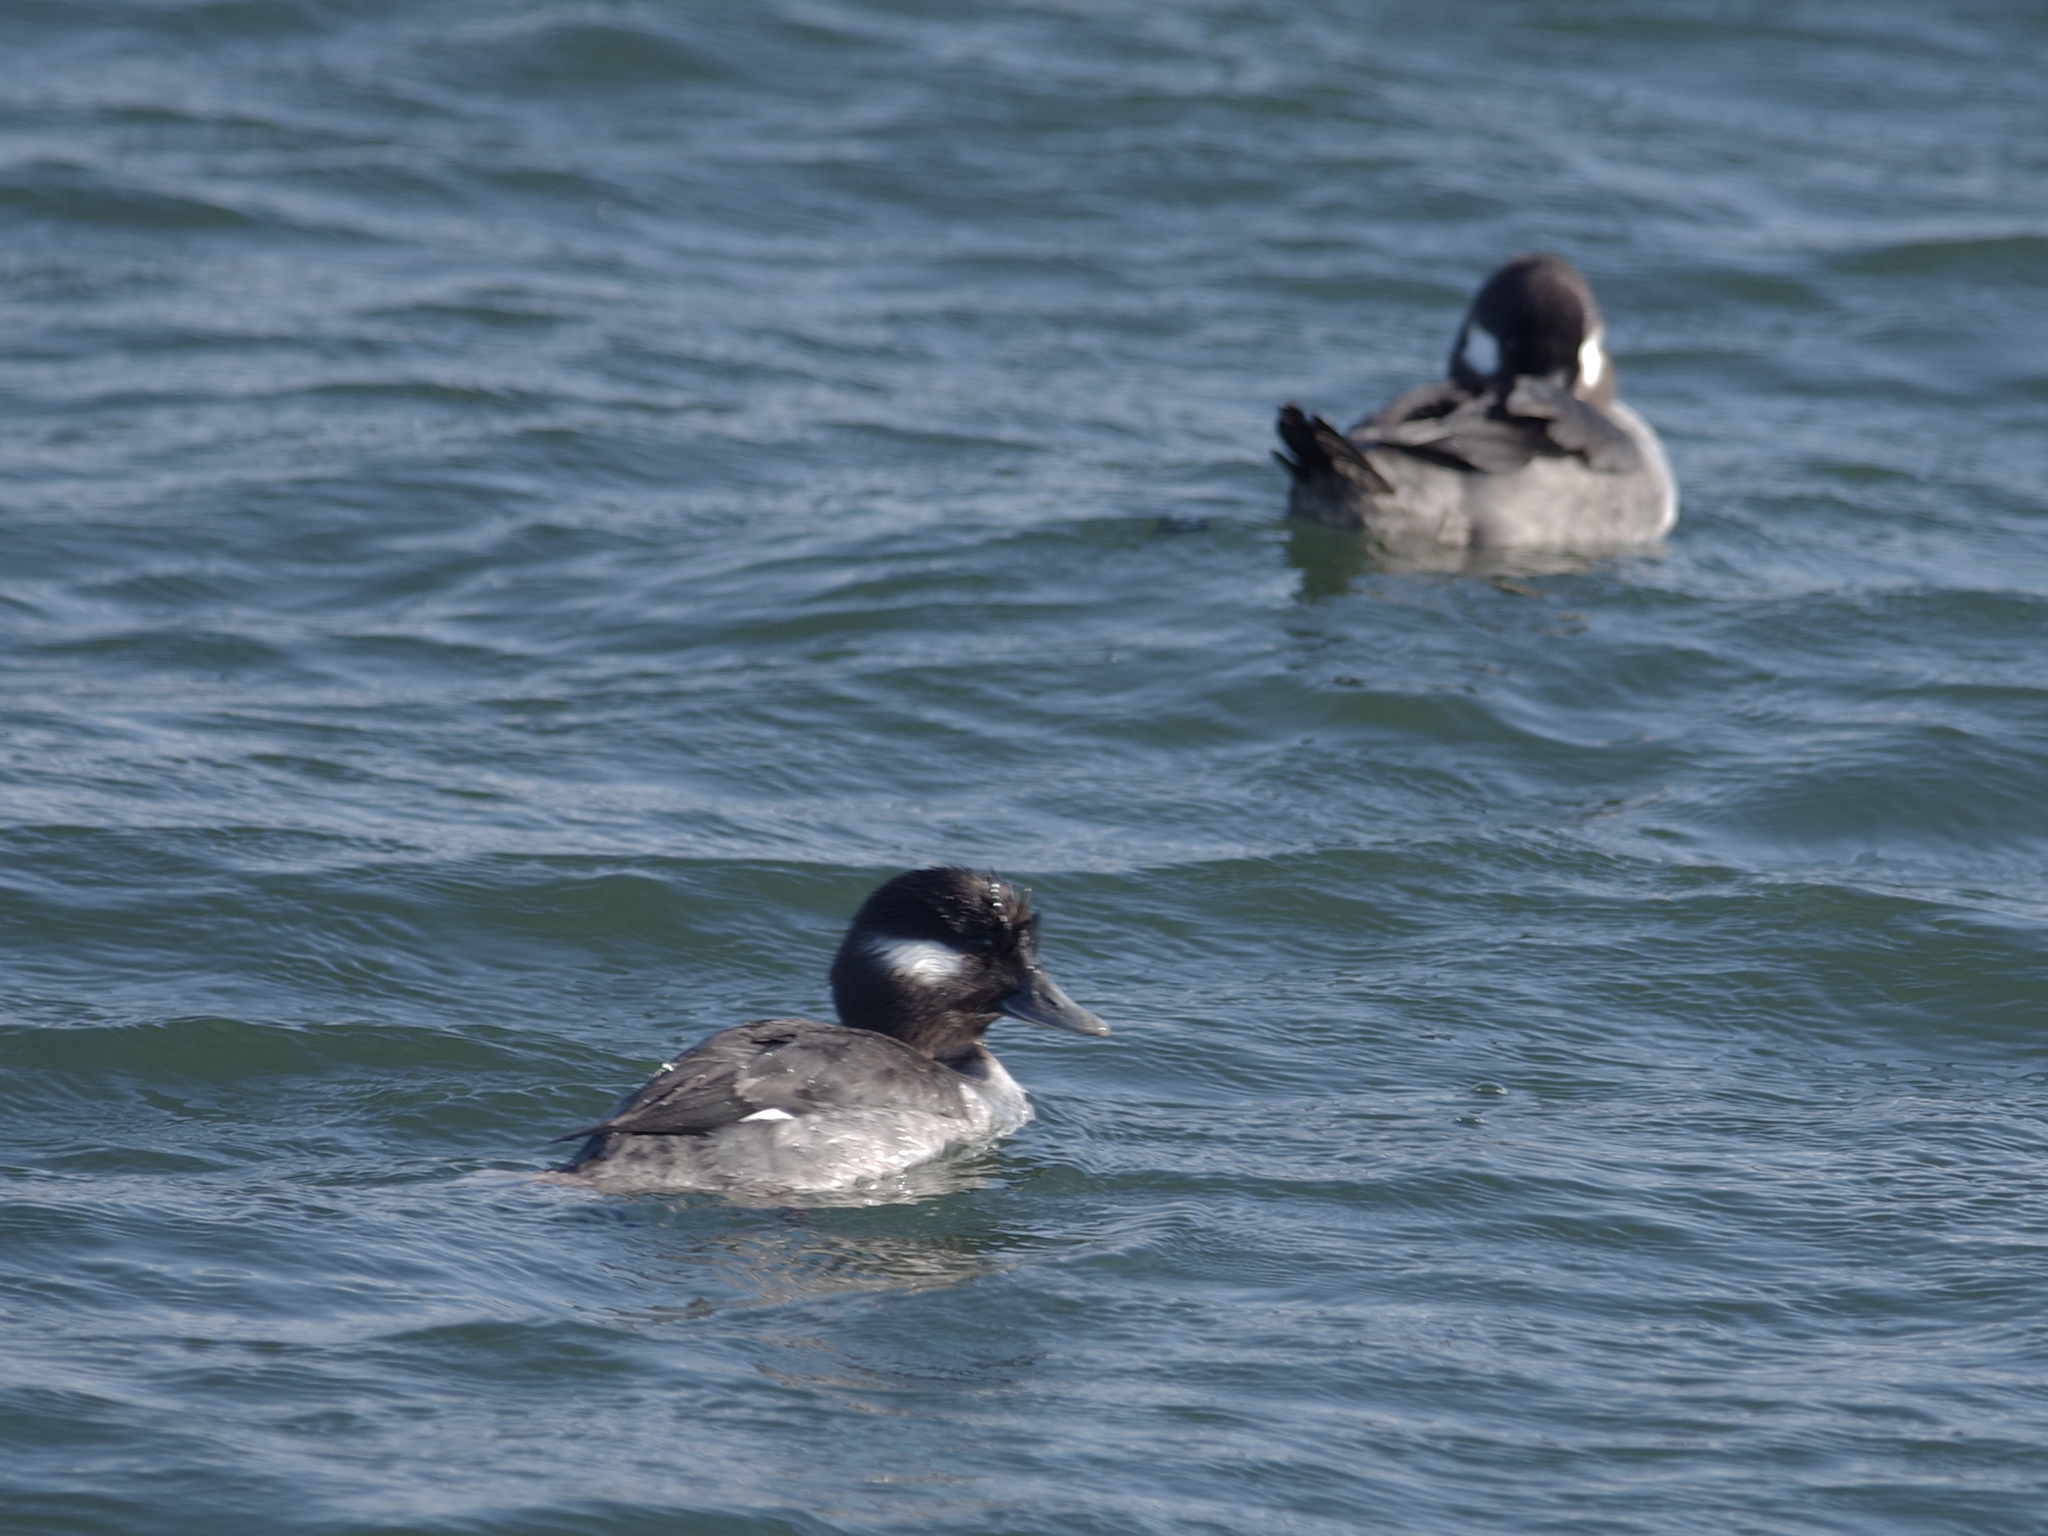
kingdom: Animalia
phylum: Chordata
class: Aves
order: Anseriformes
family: Anatidae
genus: Bucephala
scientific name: Bucephala albeola
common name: Bufflehead
